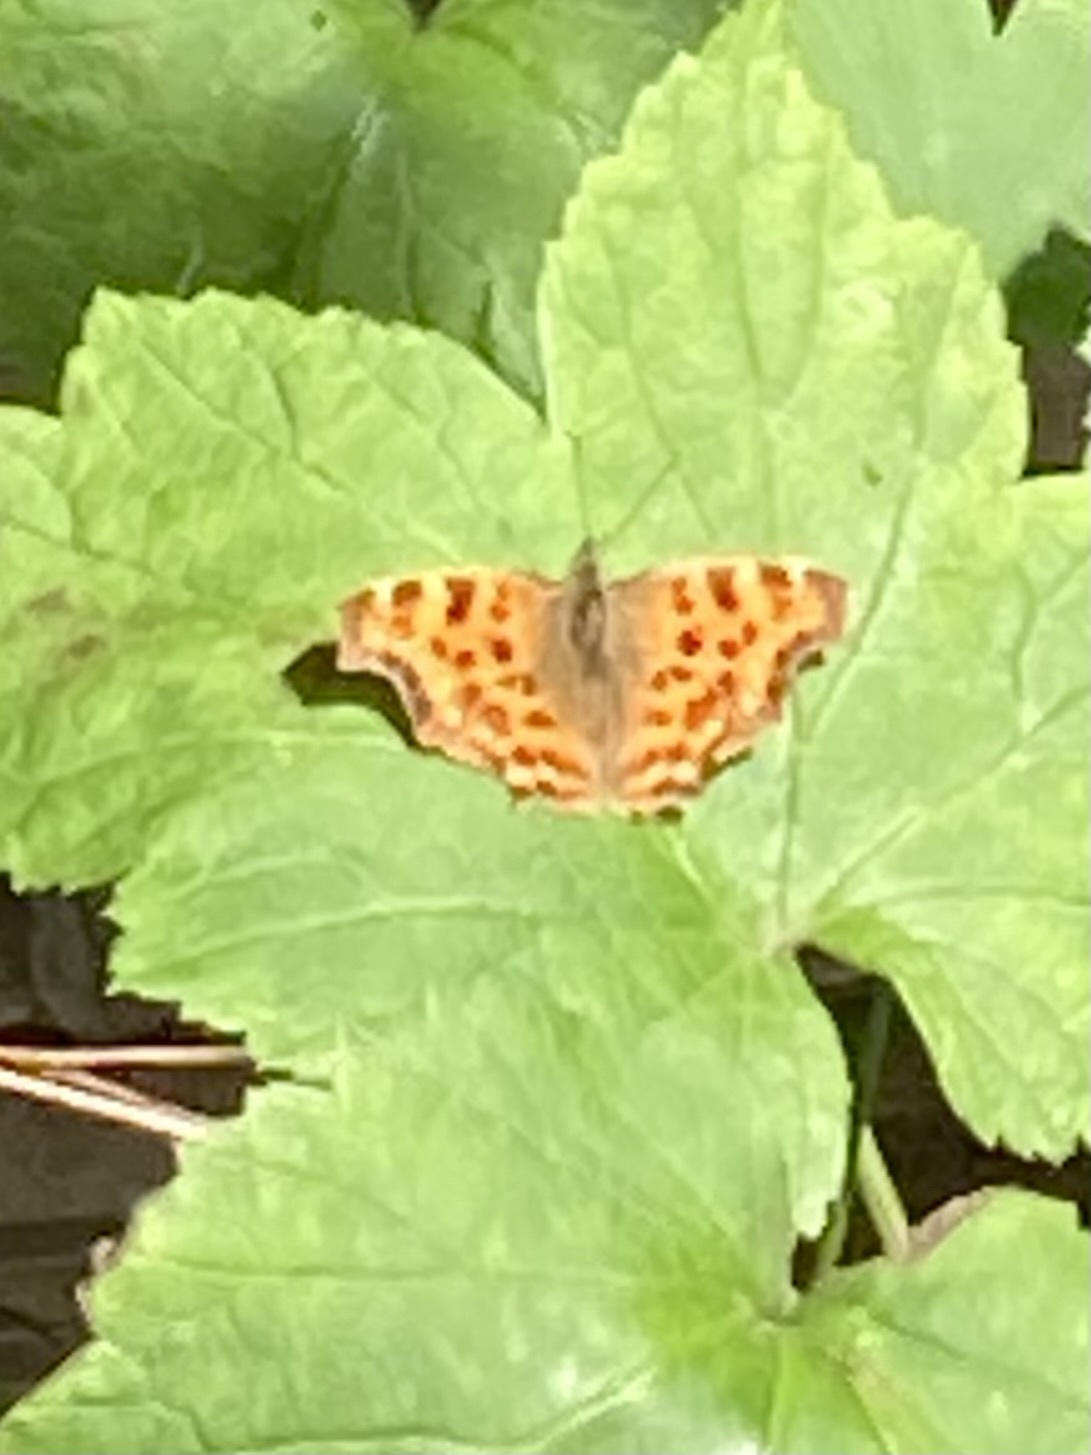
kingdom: Animalia
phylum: Arthropoda
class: Insecta
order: Lepidoptera
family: Nymphalidae
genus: Polygonia
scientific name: Polygonia c-album
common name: Comma
